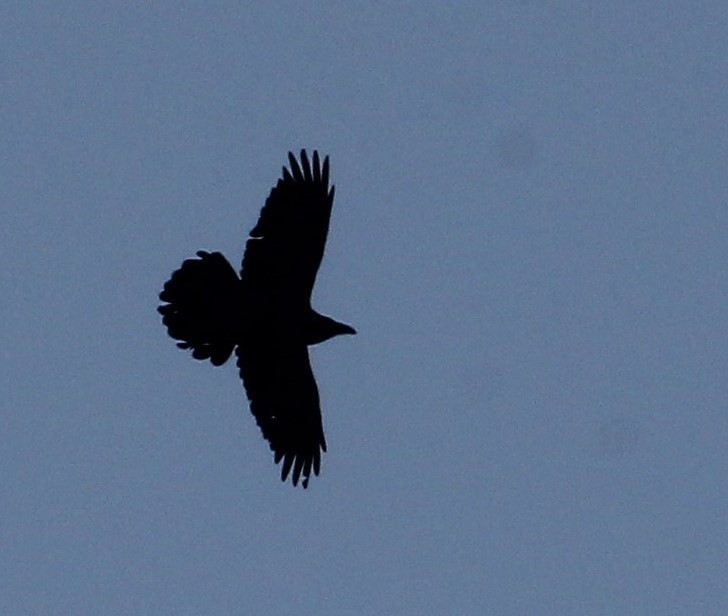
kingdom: Animalia
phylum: Chordata
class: Aves
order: Passeriformes
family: Corvidae
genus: Corvus
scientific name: Corvus corax
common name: Common raven
